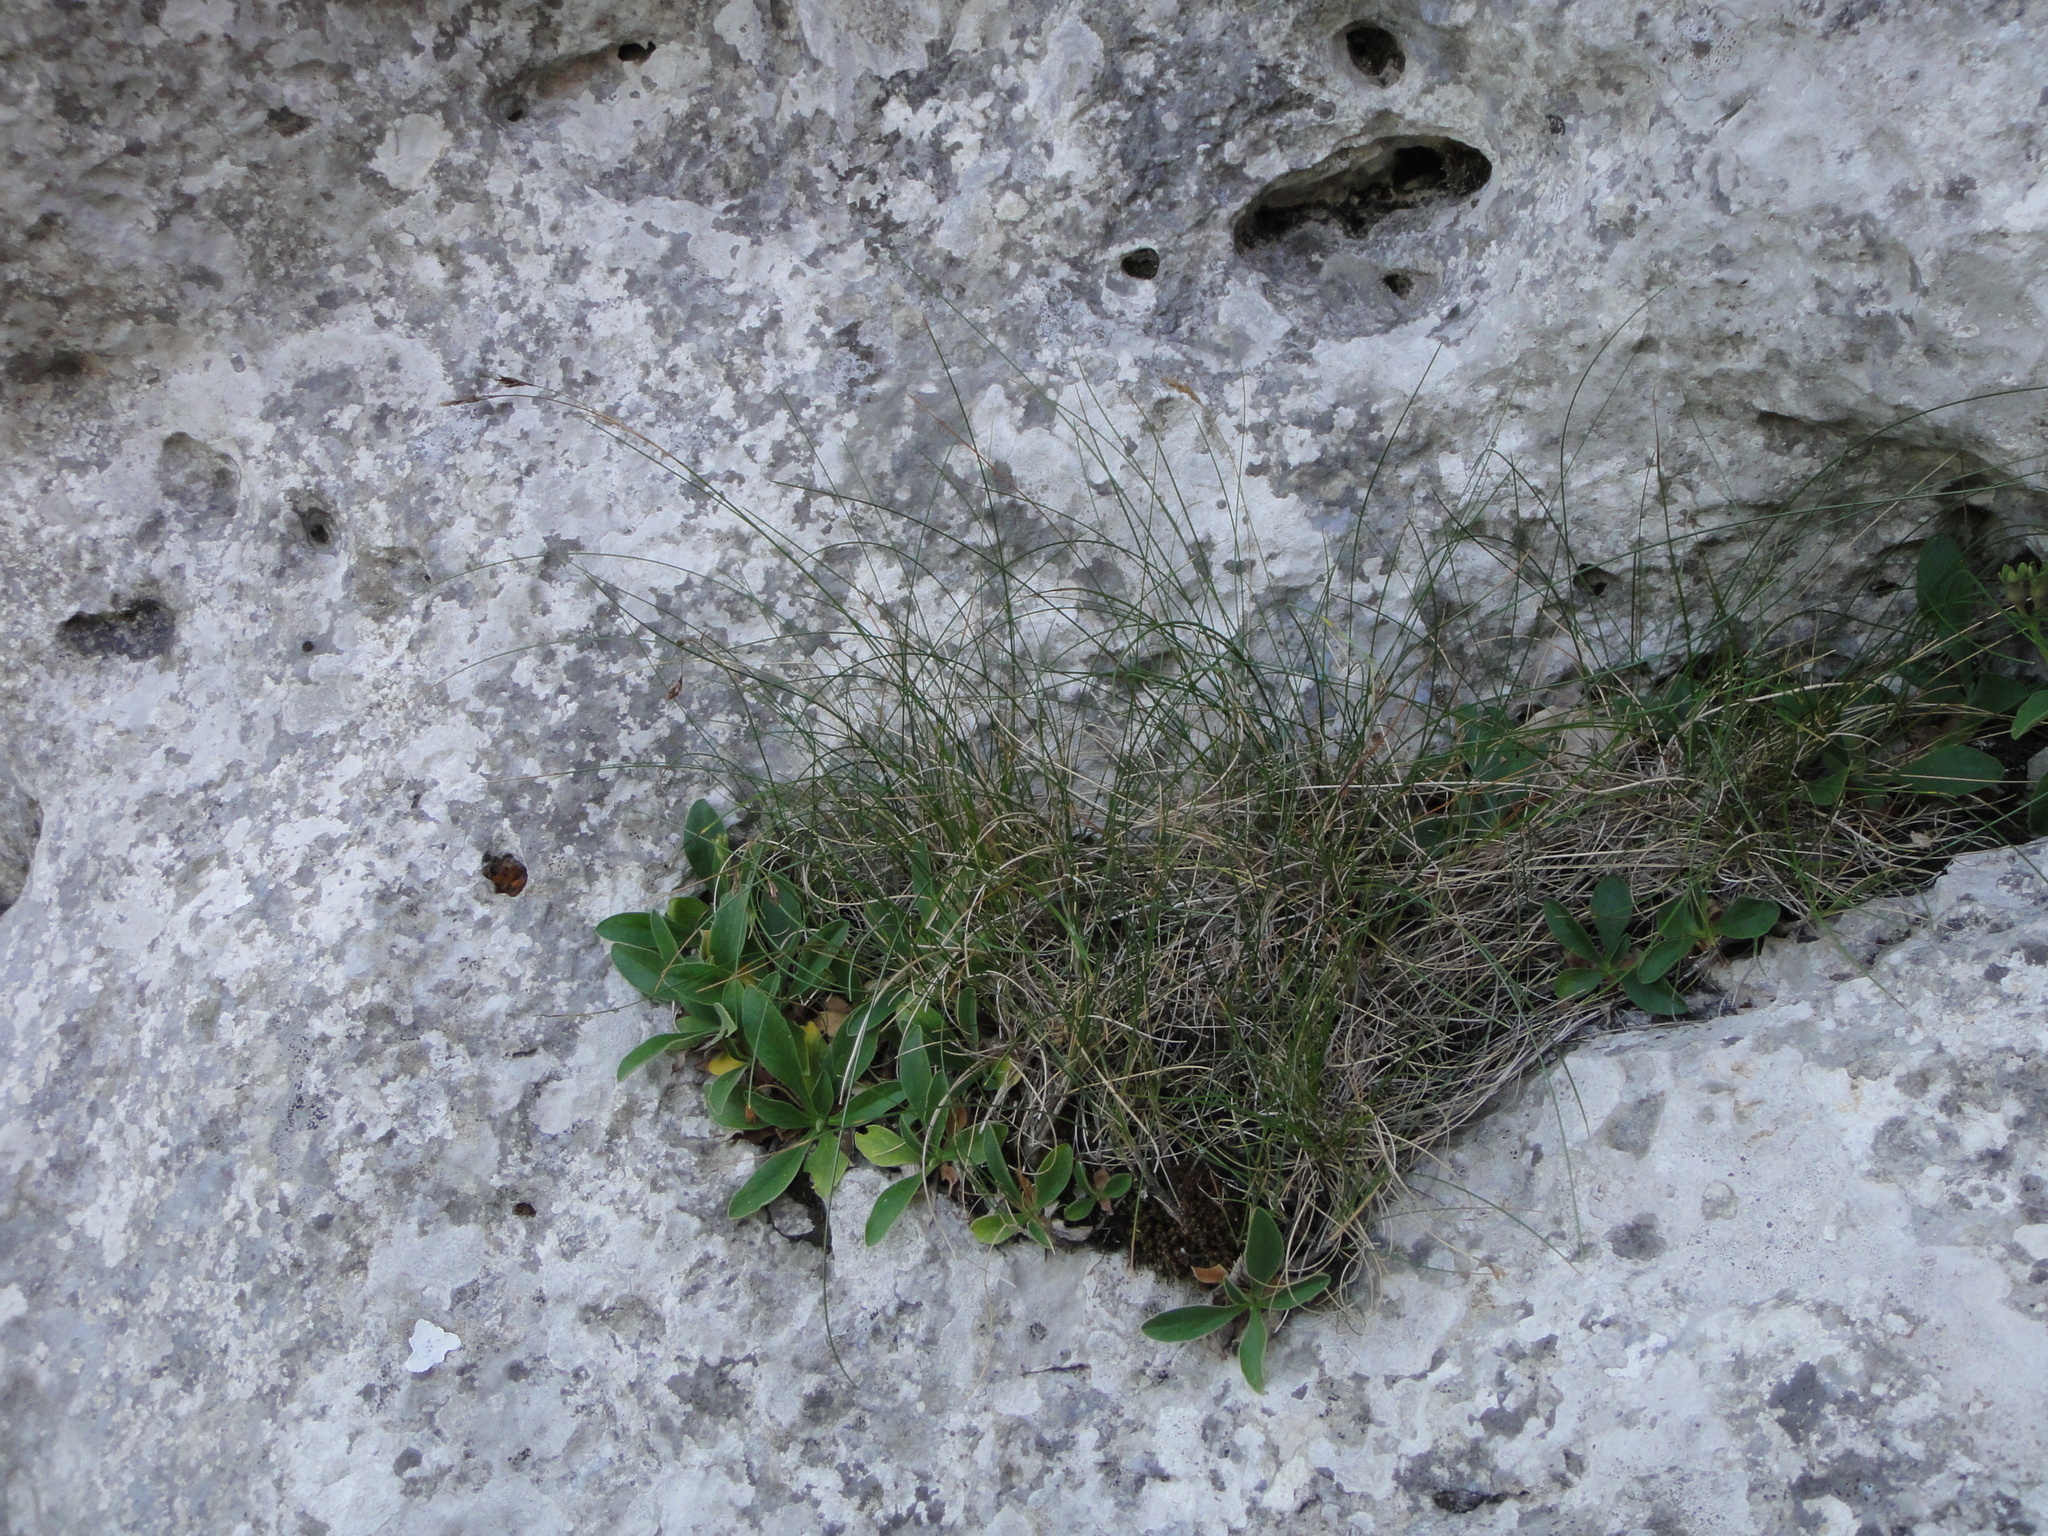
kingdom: Plantae
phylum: Tracheophyta
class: Liliopsida
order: Poales
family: Cyperaceae
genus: Carex
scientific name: Carex brachystachys
